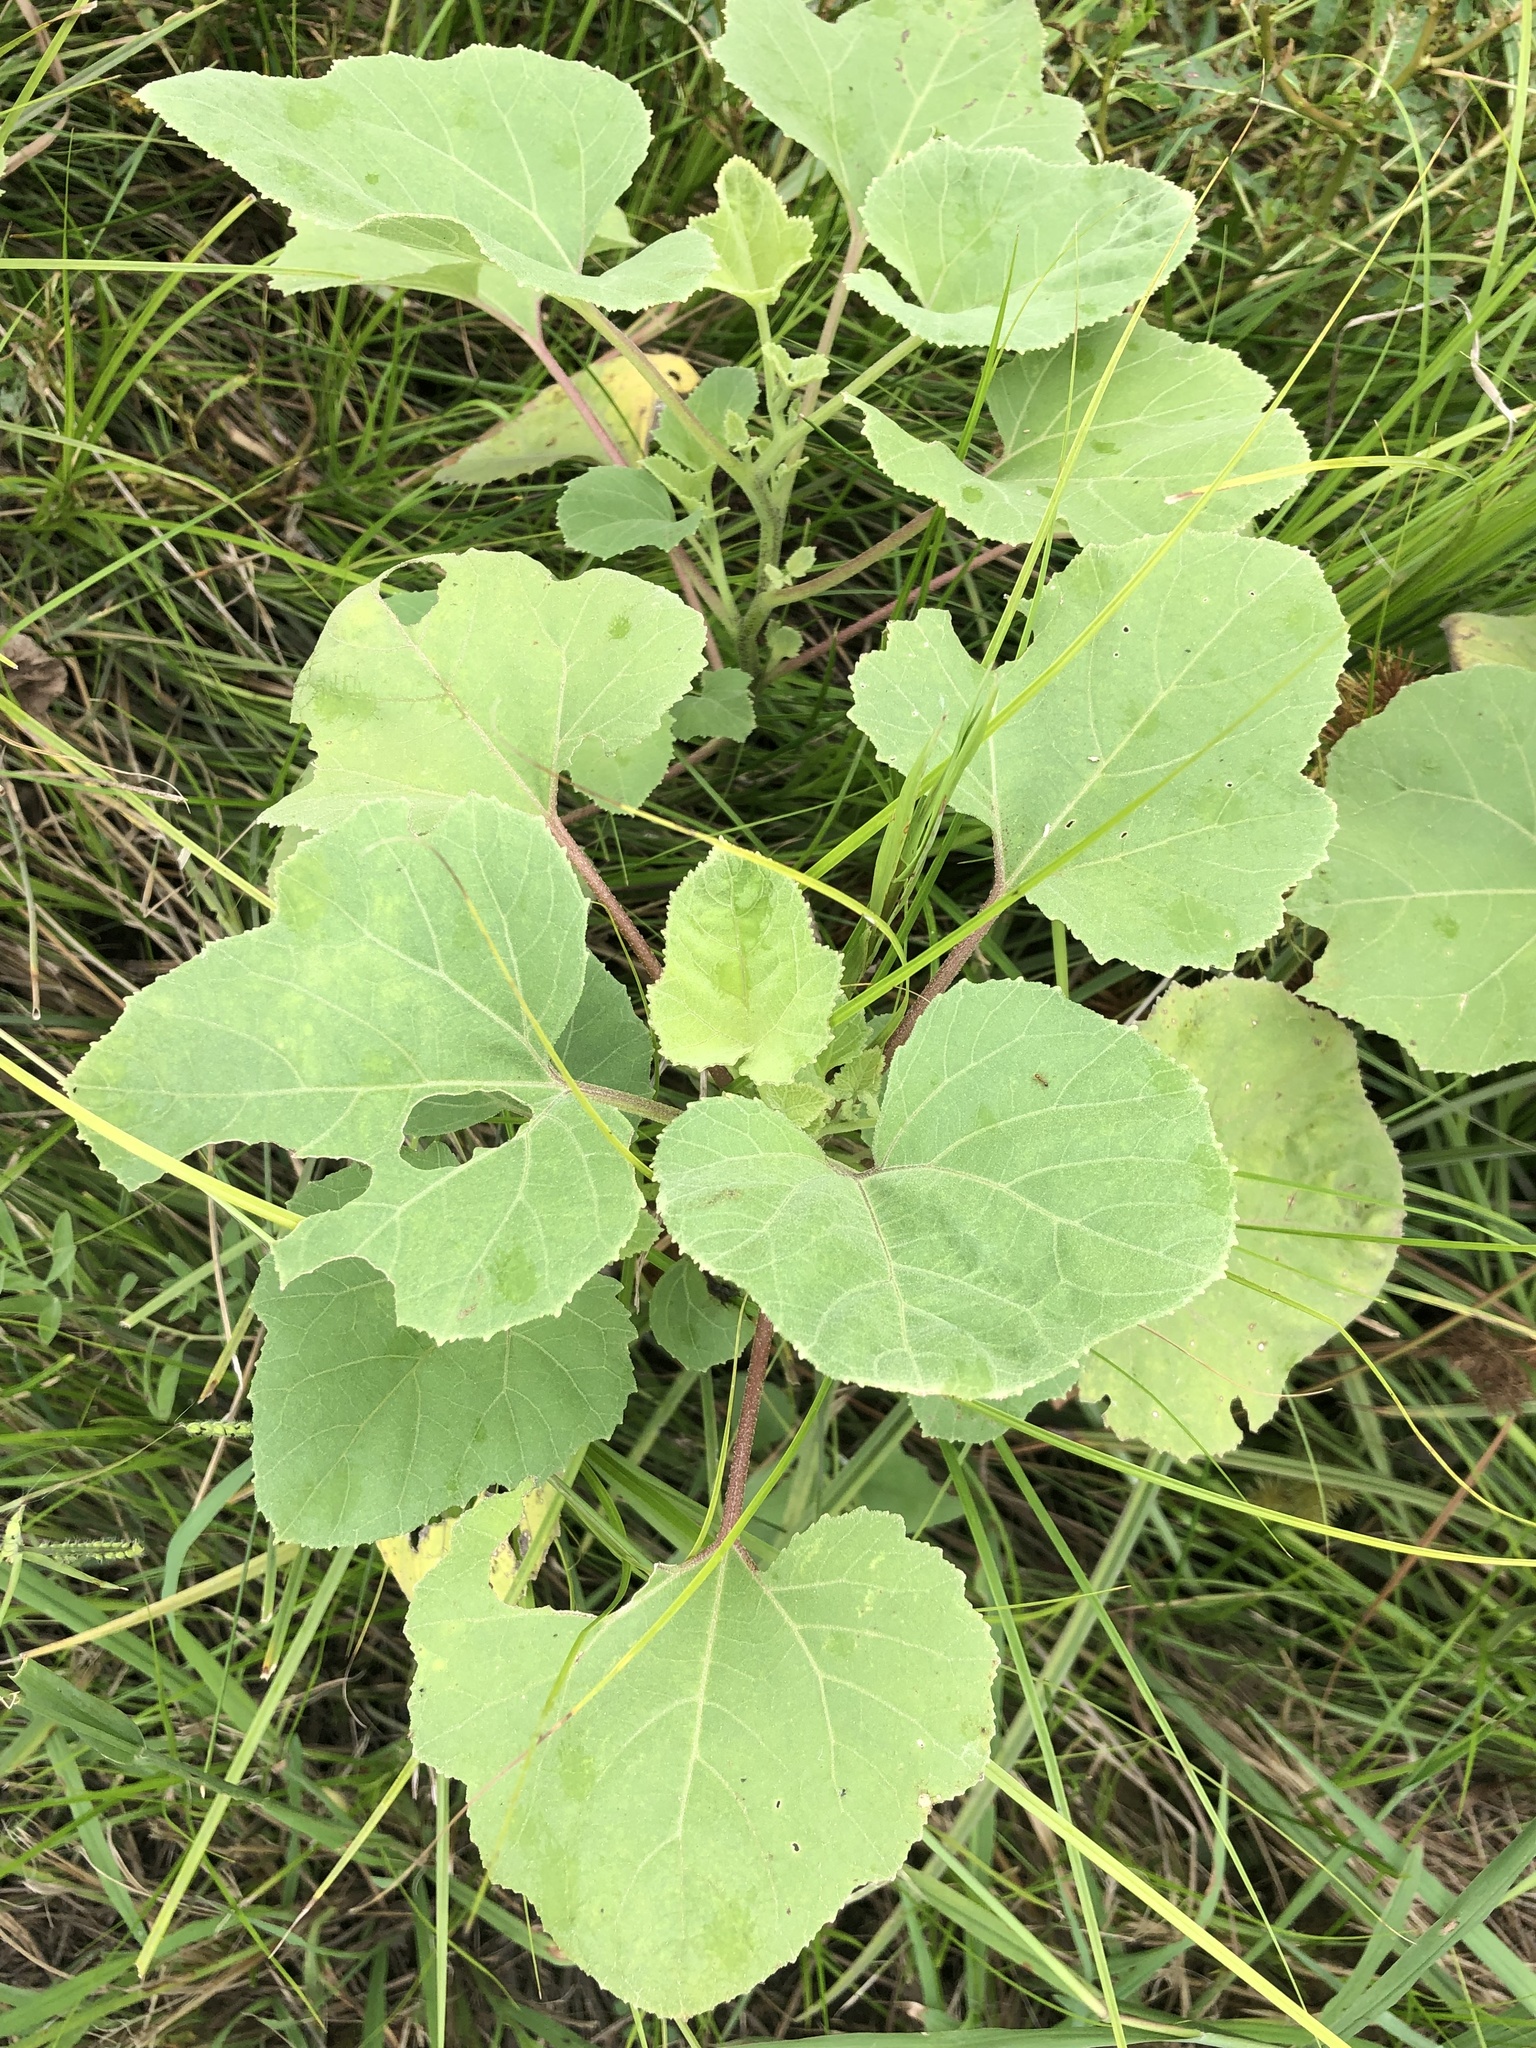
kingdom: Plantae
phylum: Tracheophyta
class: Magnoliopsida
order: Asterales
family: Asteraceae
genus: Xanthium
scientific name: Xanthium strumarium
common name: Rough cocklebur
